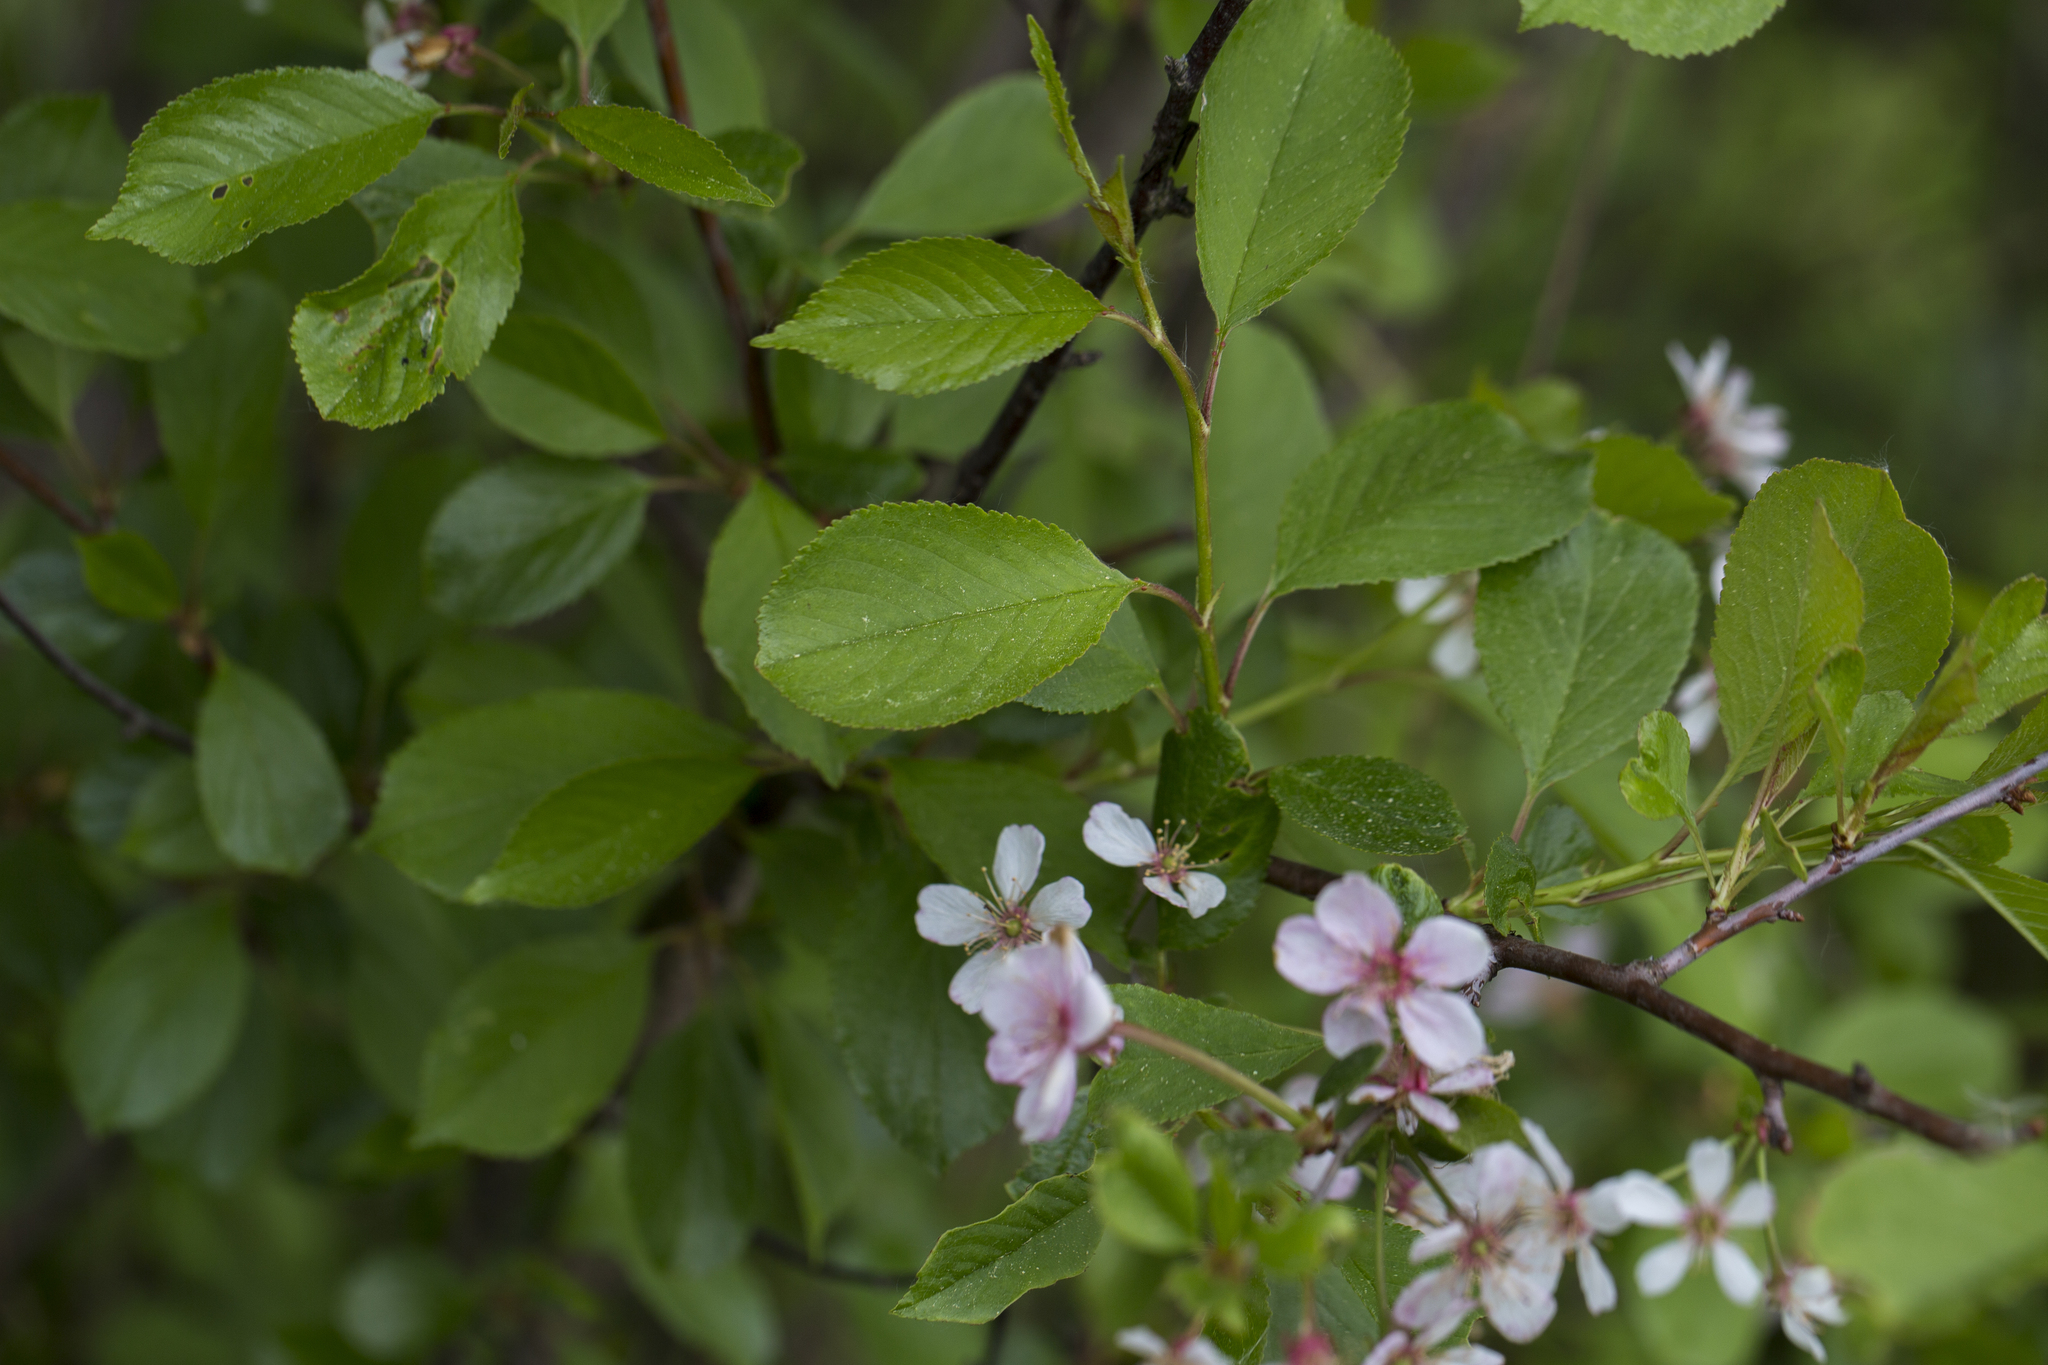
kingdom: Plantae
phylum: Tracheophyta
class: Magnoliopsida
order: Rosales
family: Rosaceae
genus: Prunus
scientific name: Prunus cerasus
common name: Morello cherry
